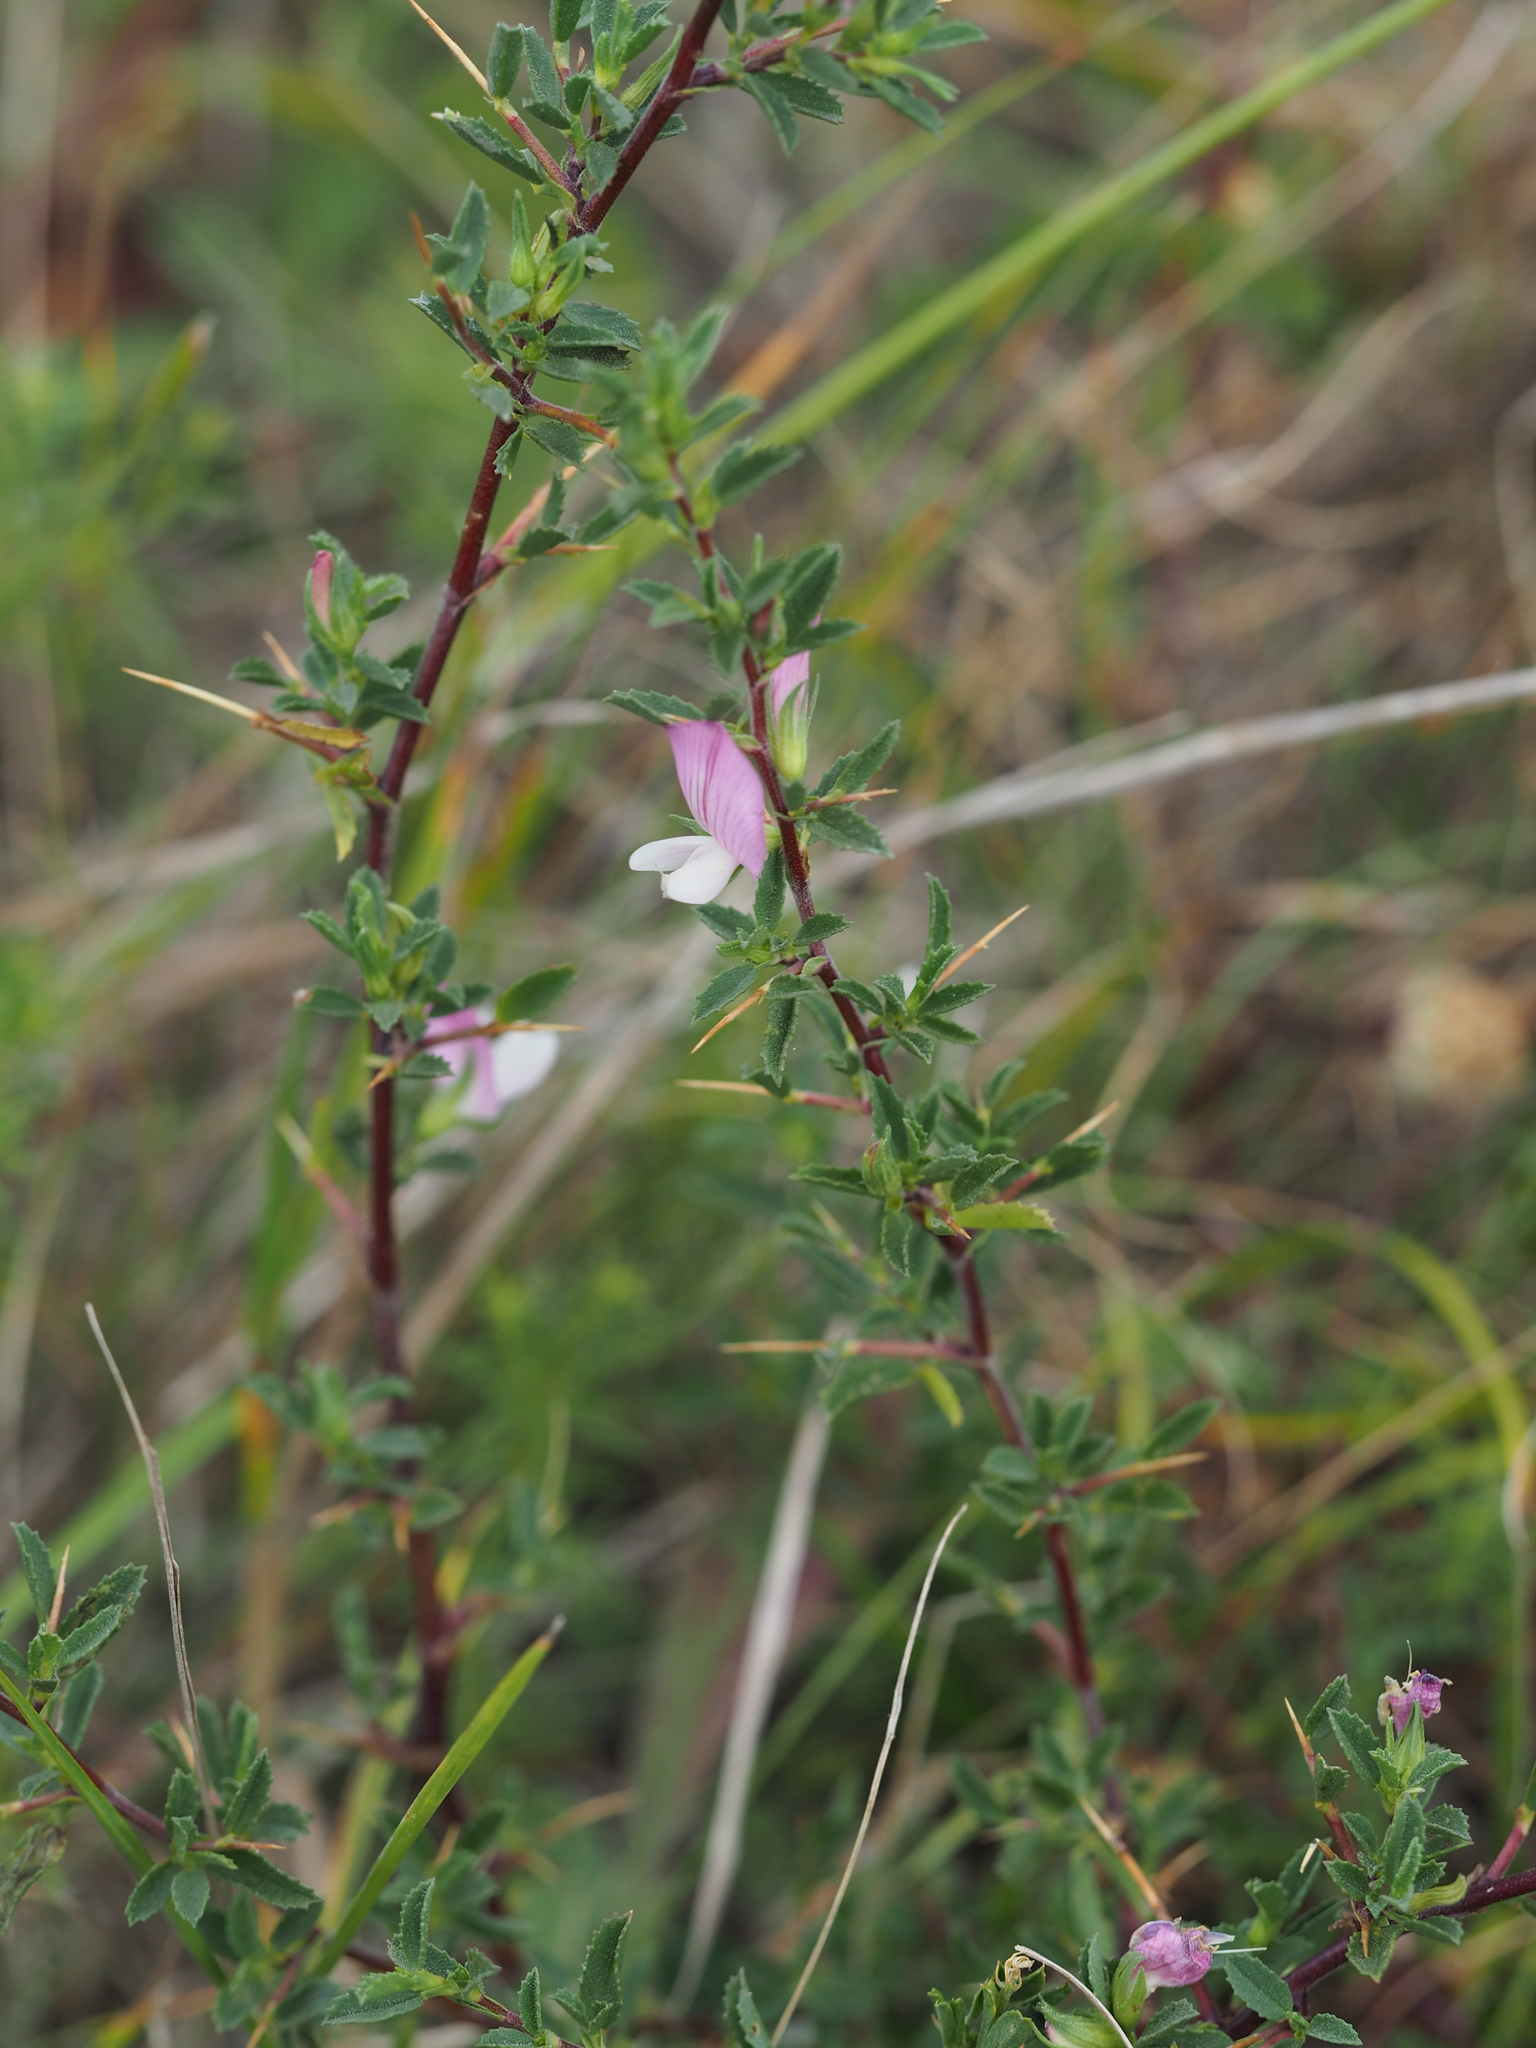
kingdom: Plantae
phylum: Tracheophyta
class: Magnoliopsida
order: Fabales
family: Fabaceae
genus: Ononis
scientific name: Ononis spinosa
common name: Spiny restharrow
